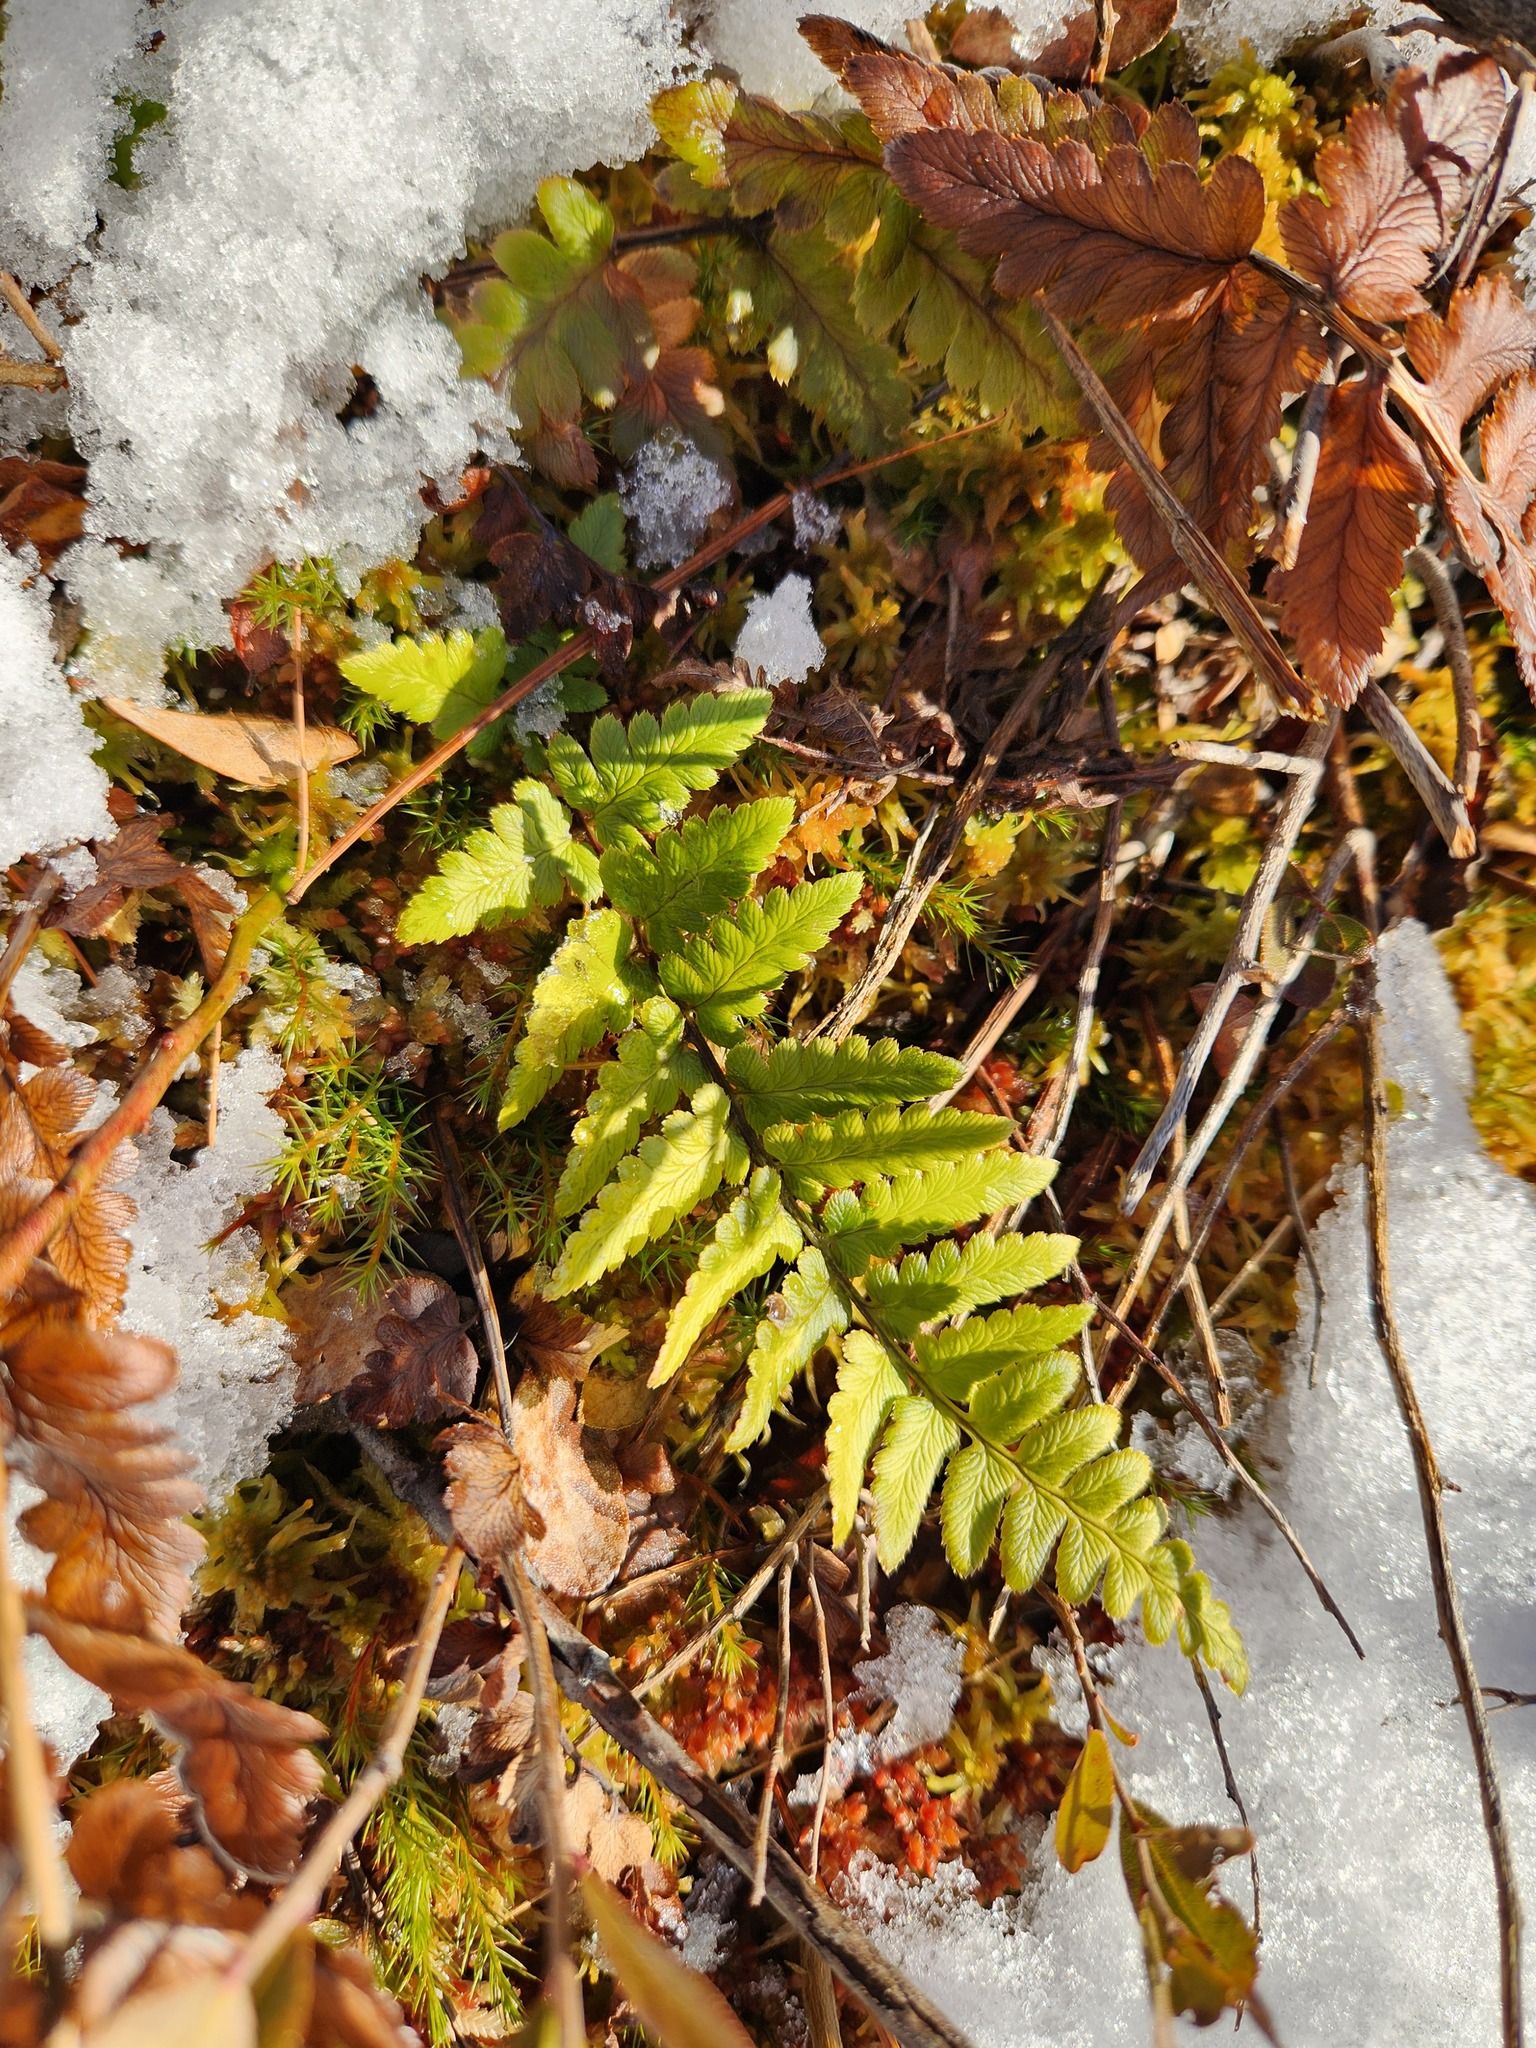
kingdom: Plantae
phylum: Tracheophyta
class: Polypodiopsida
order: Polypodiales
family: Dryopteridaceae
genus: Dryopteris
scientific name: Dryopteris cristata
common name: Crested wood fern
